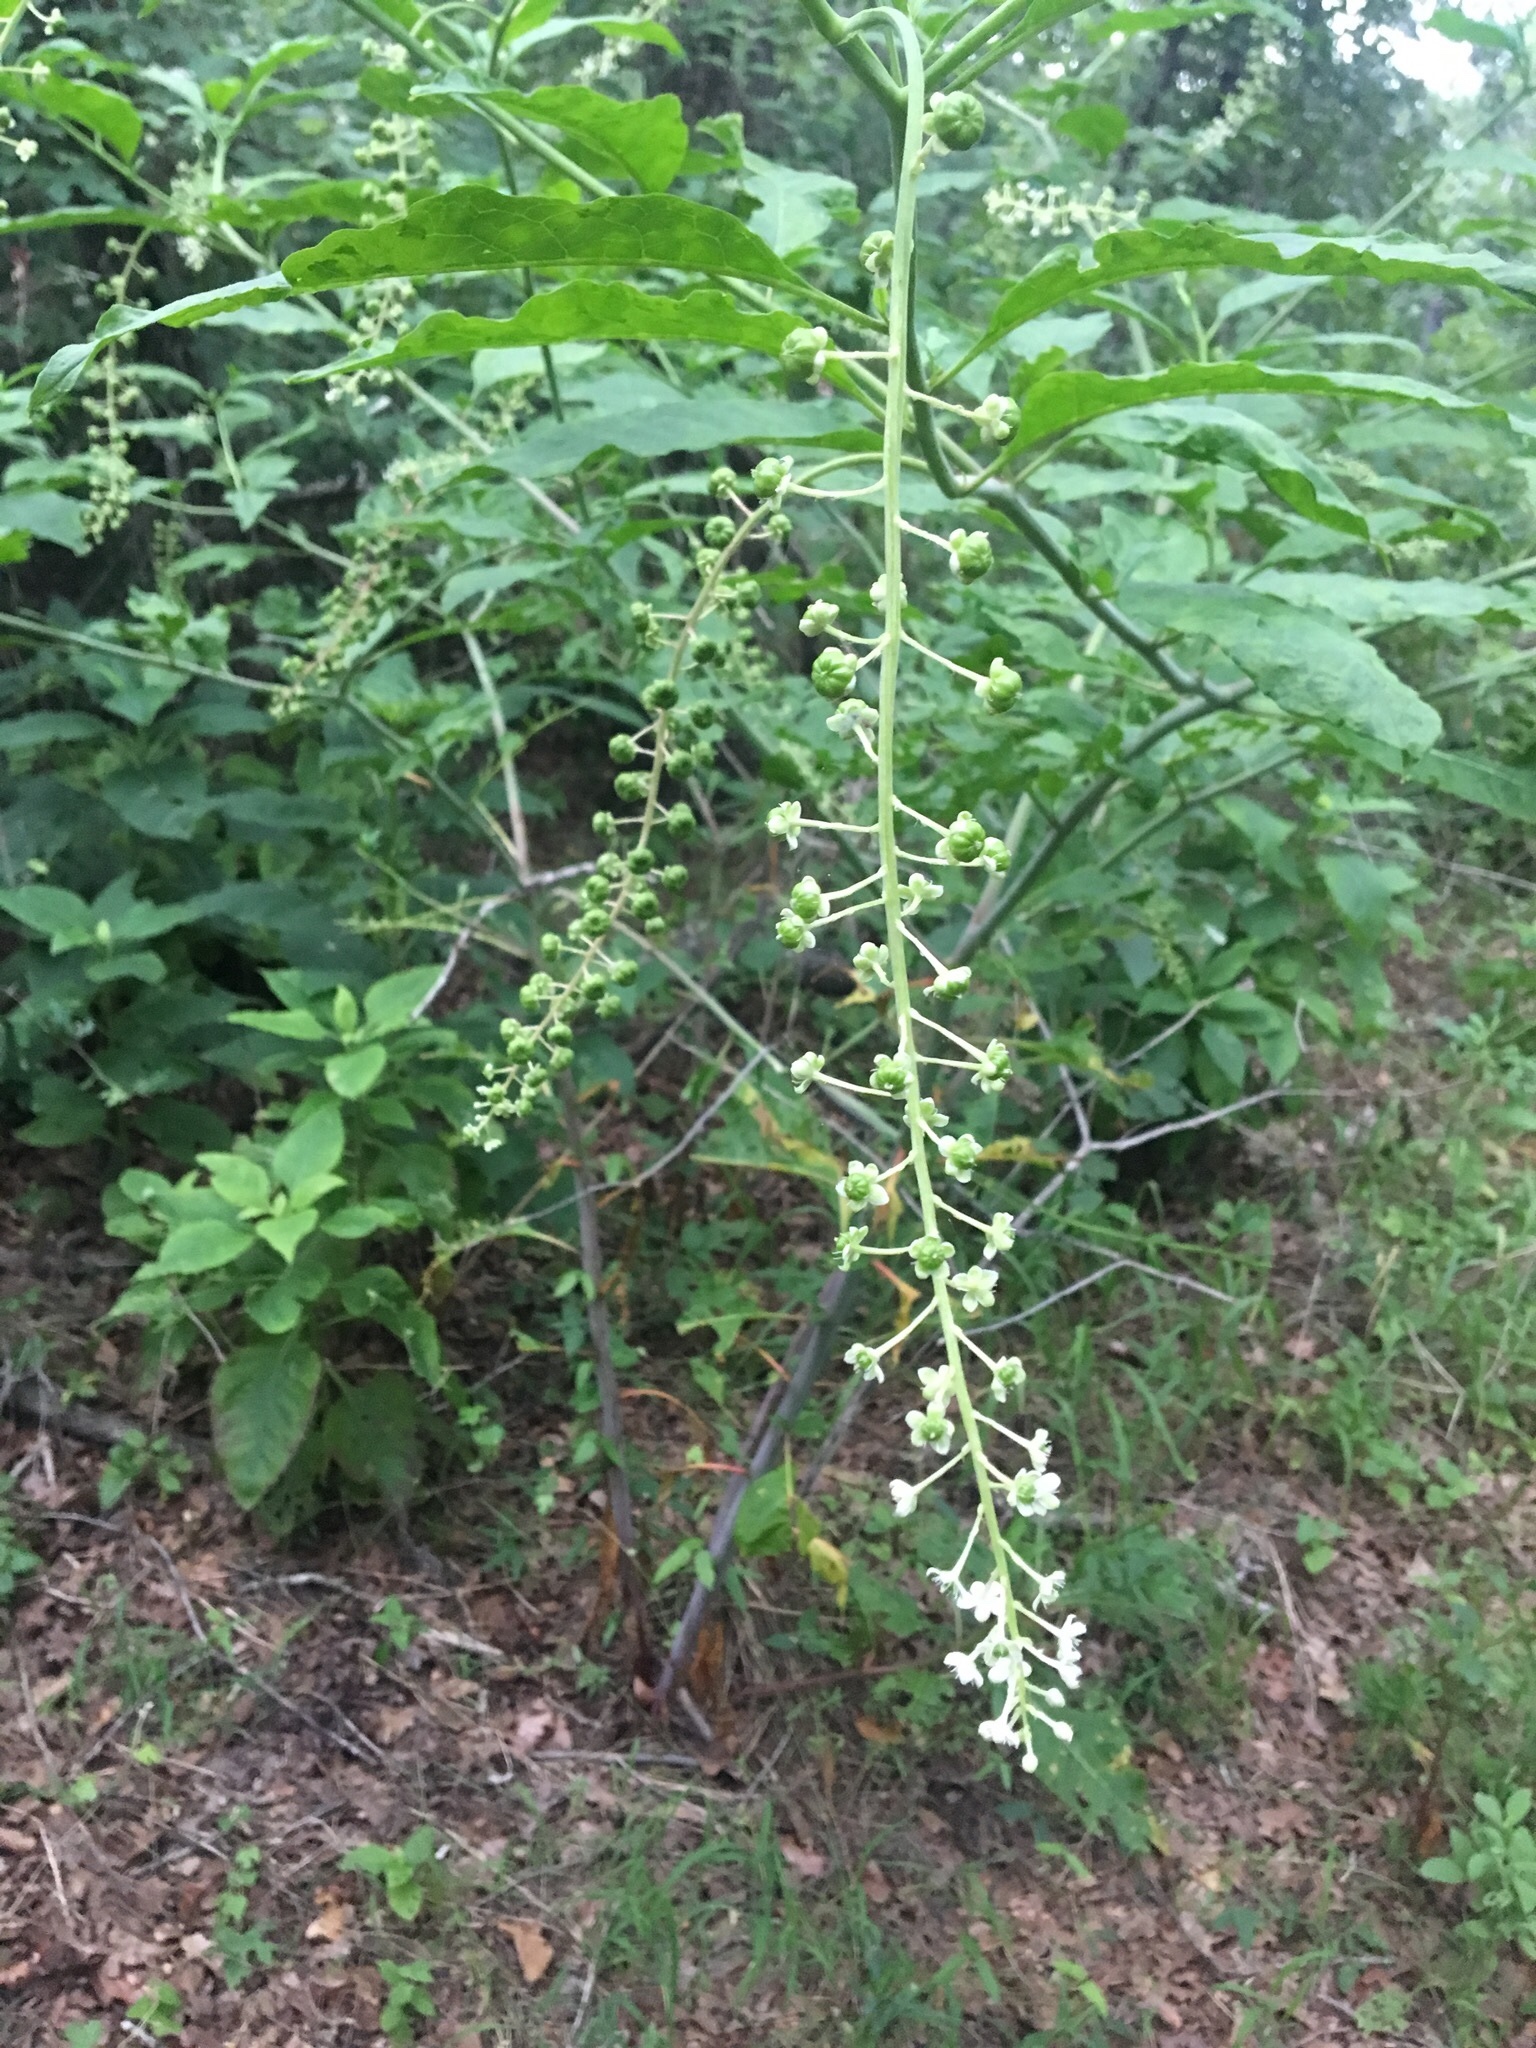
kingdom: Plantae
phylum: Tracheophyta
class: Magnoliopsida
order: Caryophyllales
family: Phytolaccaceae
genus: Phytolacca
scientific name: Phytolacca americana
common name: American pokeweed
